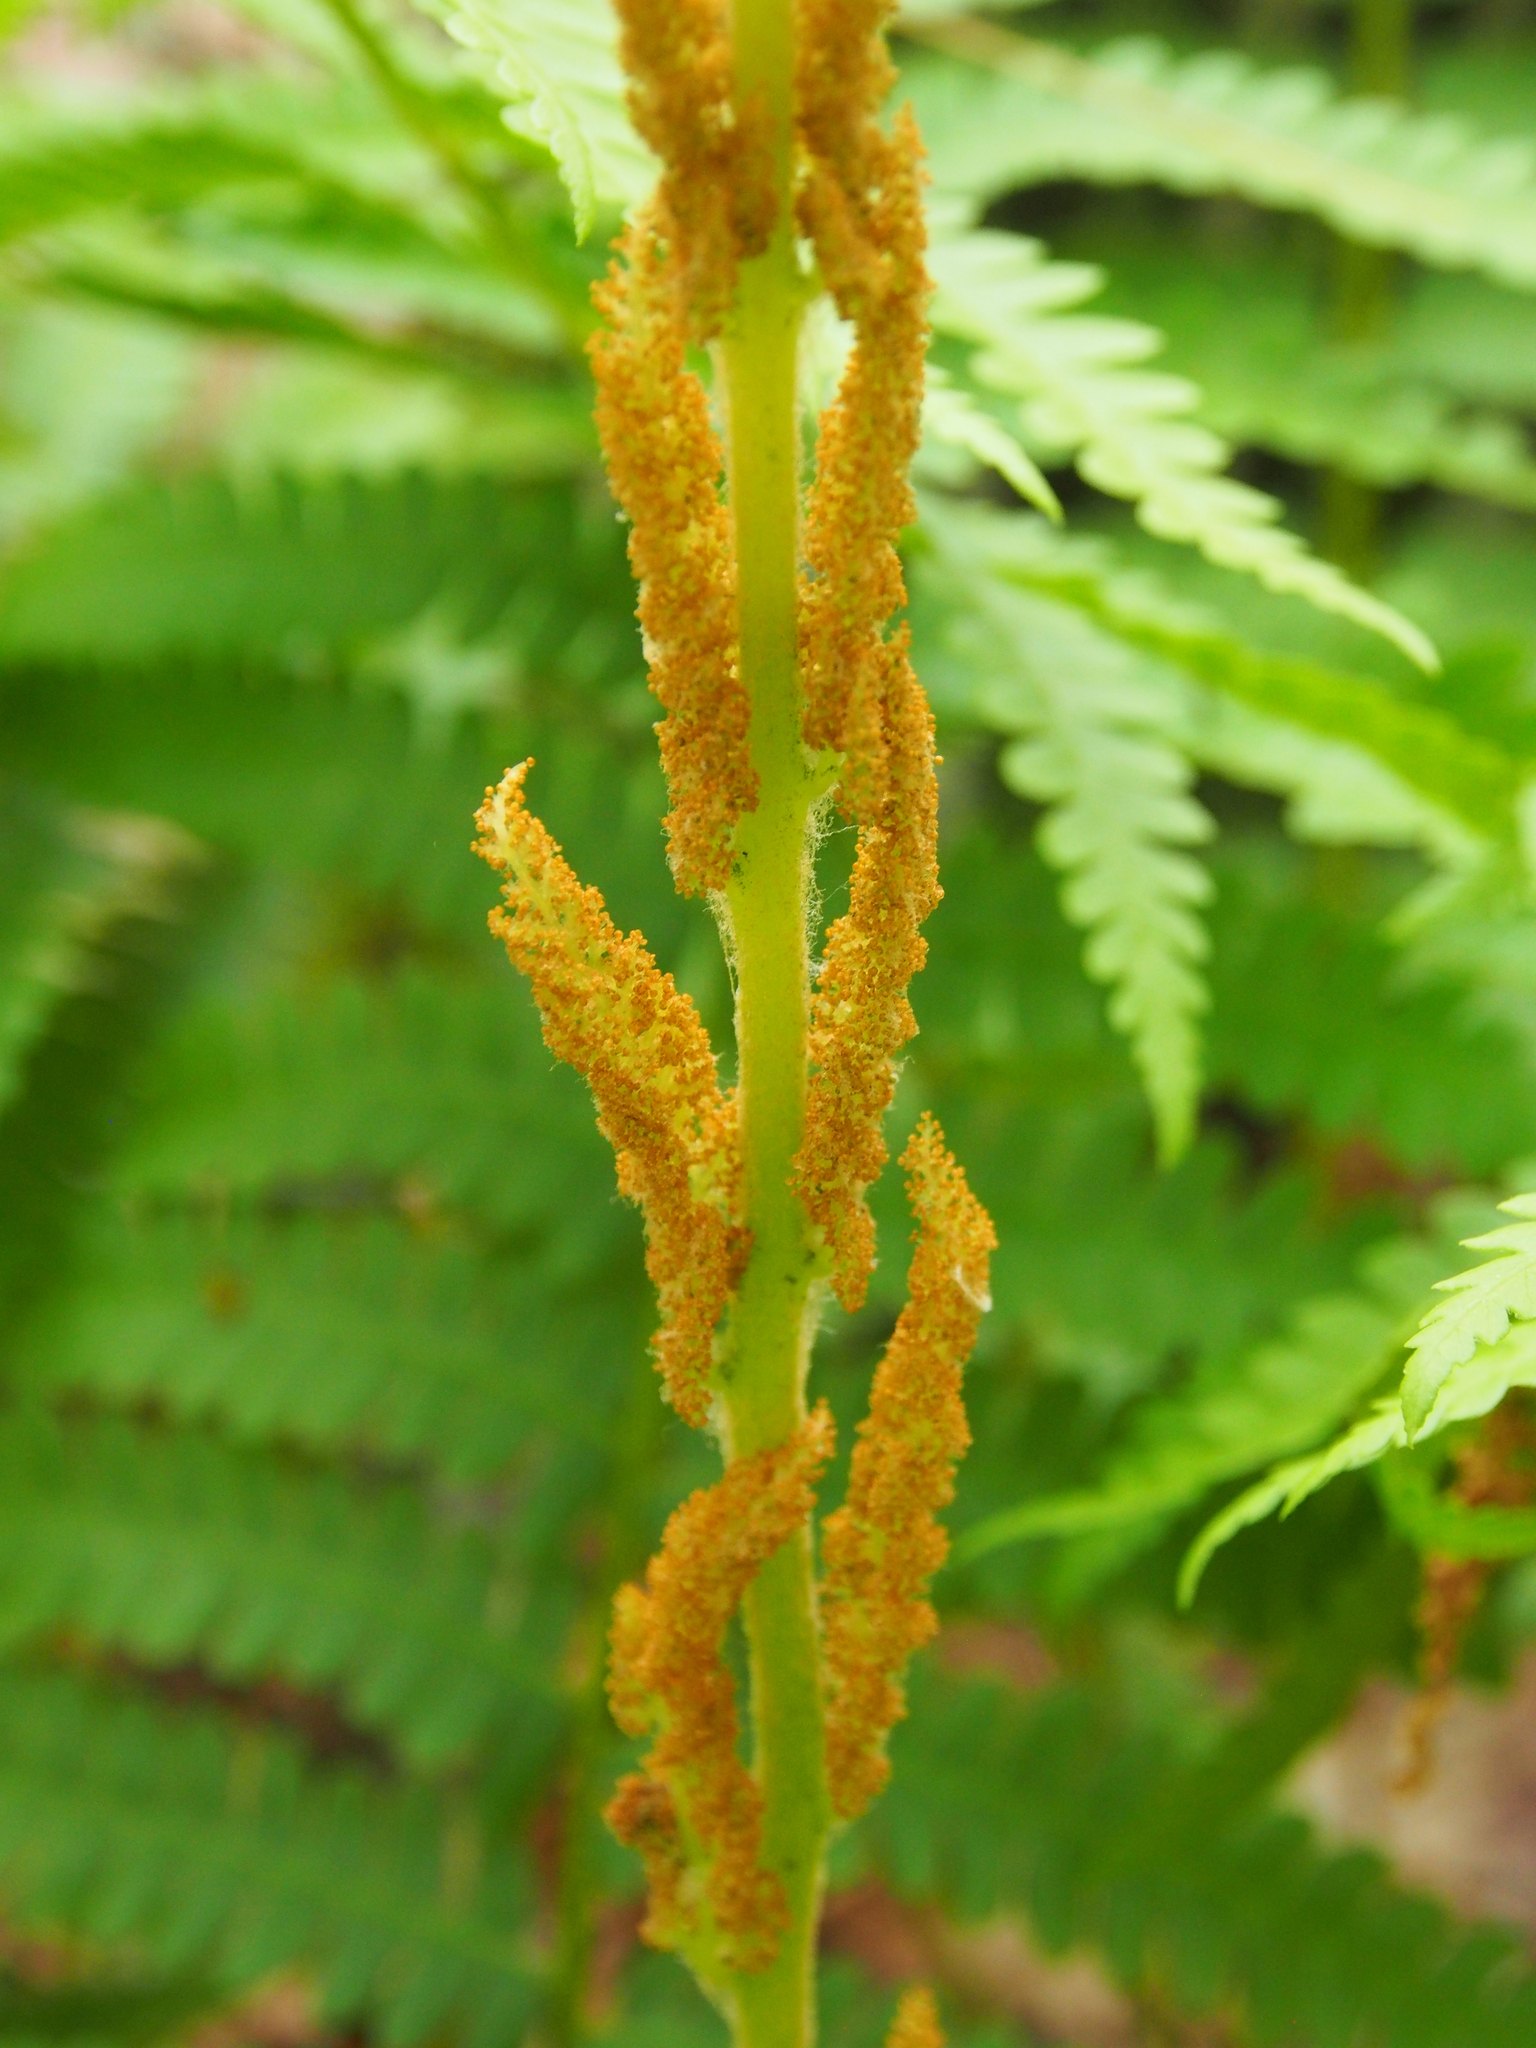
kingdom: Plantae
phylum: Tracheophyta
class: Polypodiopsida
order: Osmundales
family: Osmundaceae
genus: Osmundastrum
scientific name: Osmundastrum cinnamomeum
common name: Cinnamon fern
